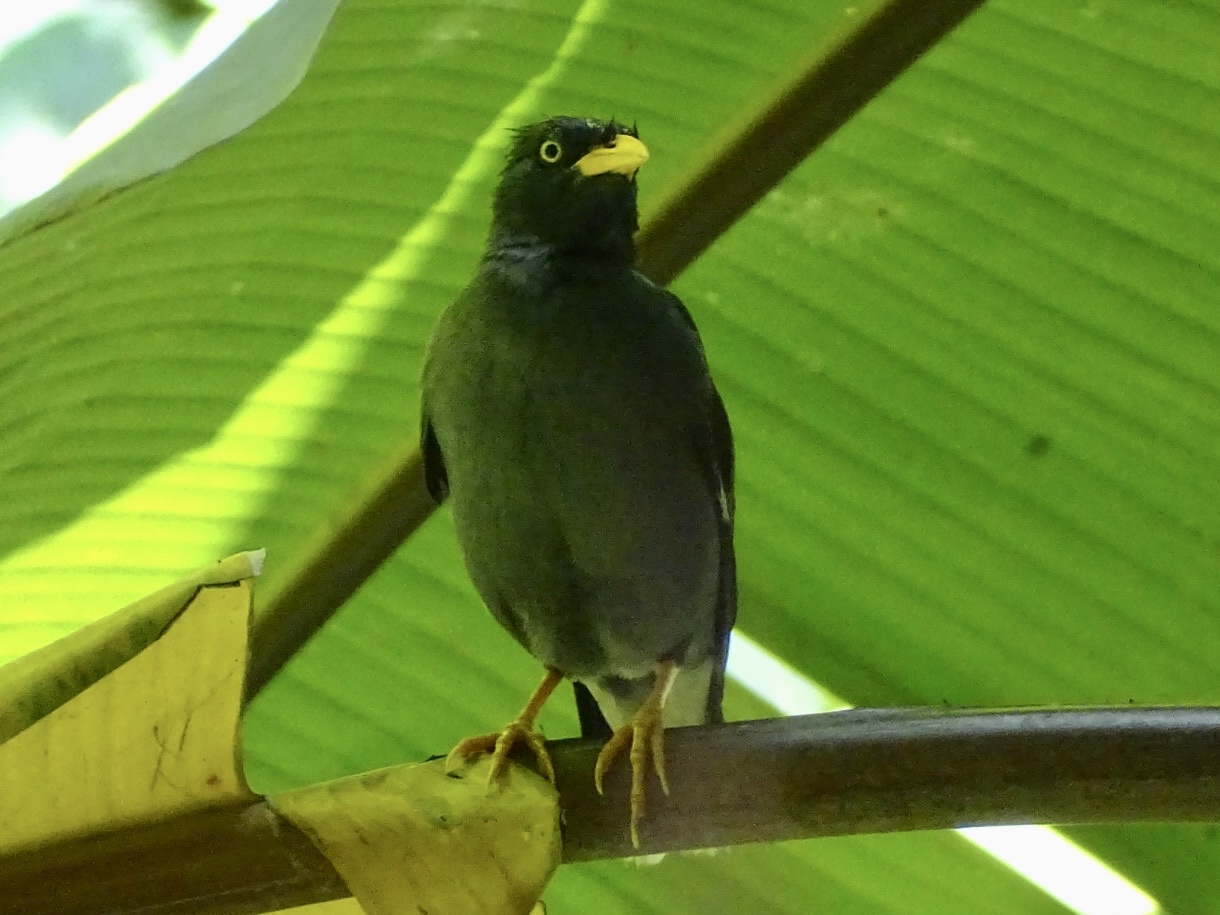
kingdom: Animalia
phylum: Chordata
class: Aves
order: Passeriformes
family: Sturnidae
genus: Acridotheres
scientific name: Acridotheres javanicus
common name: Javan myna
